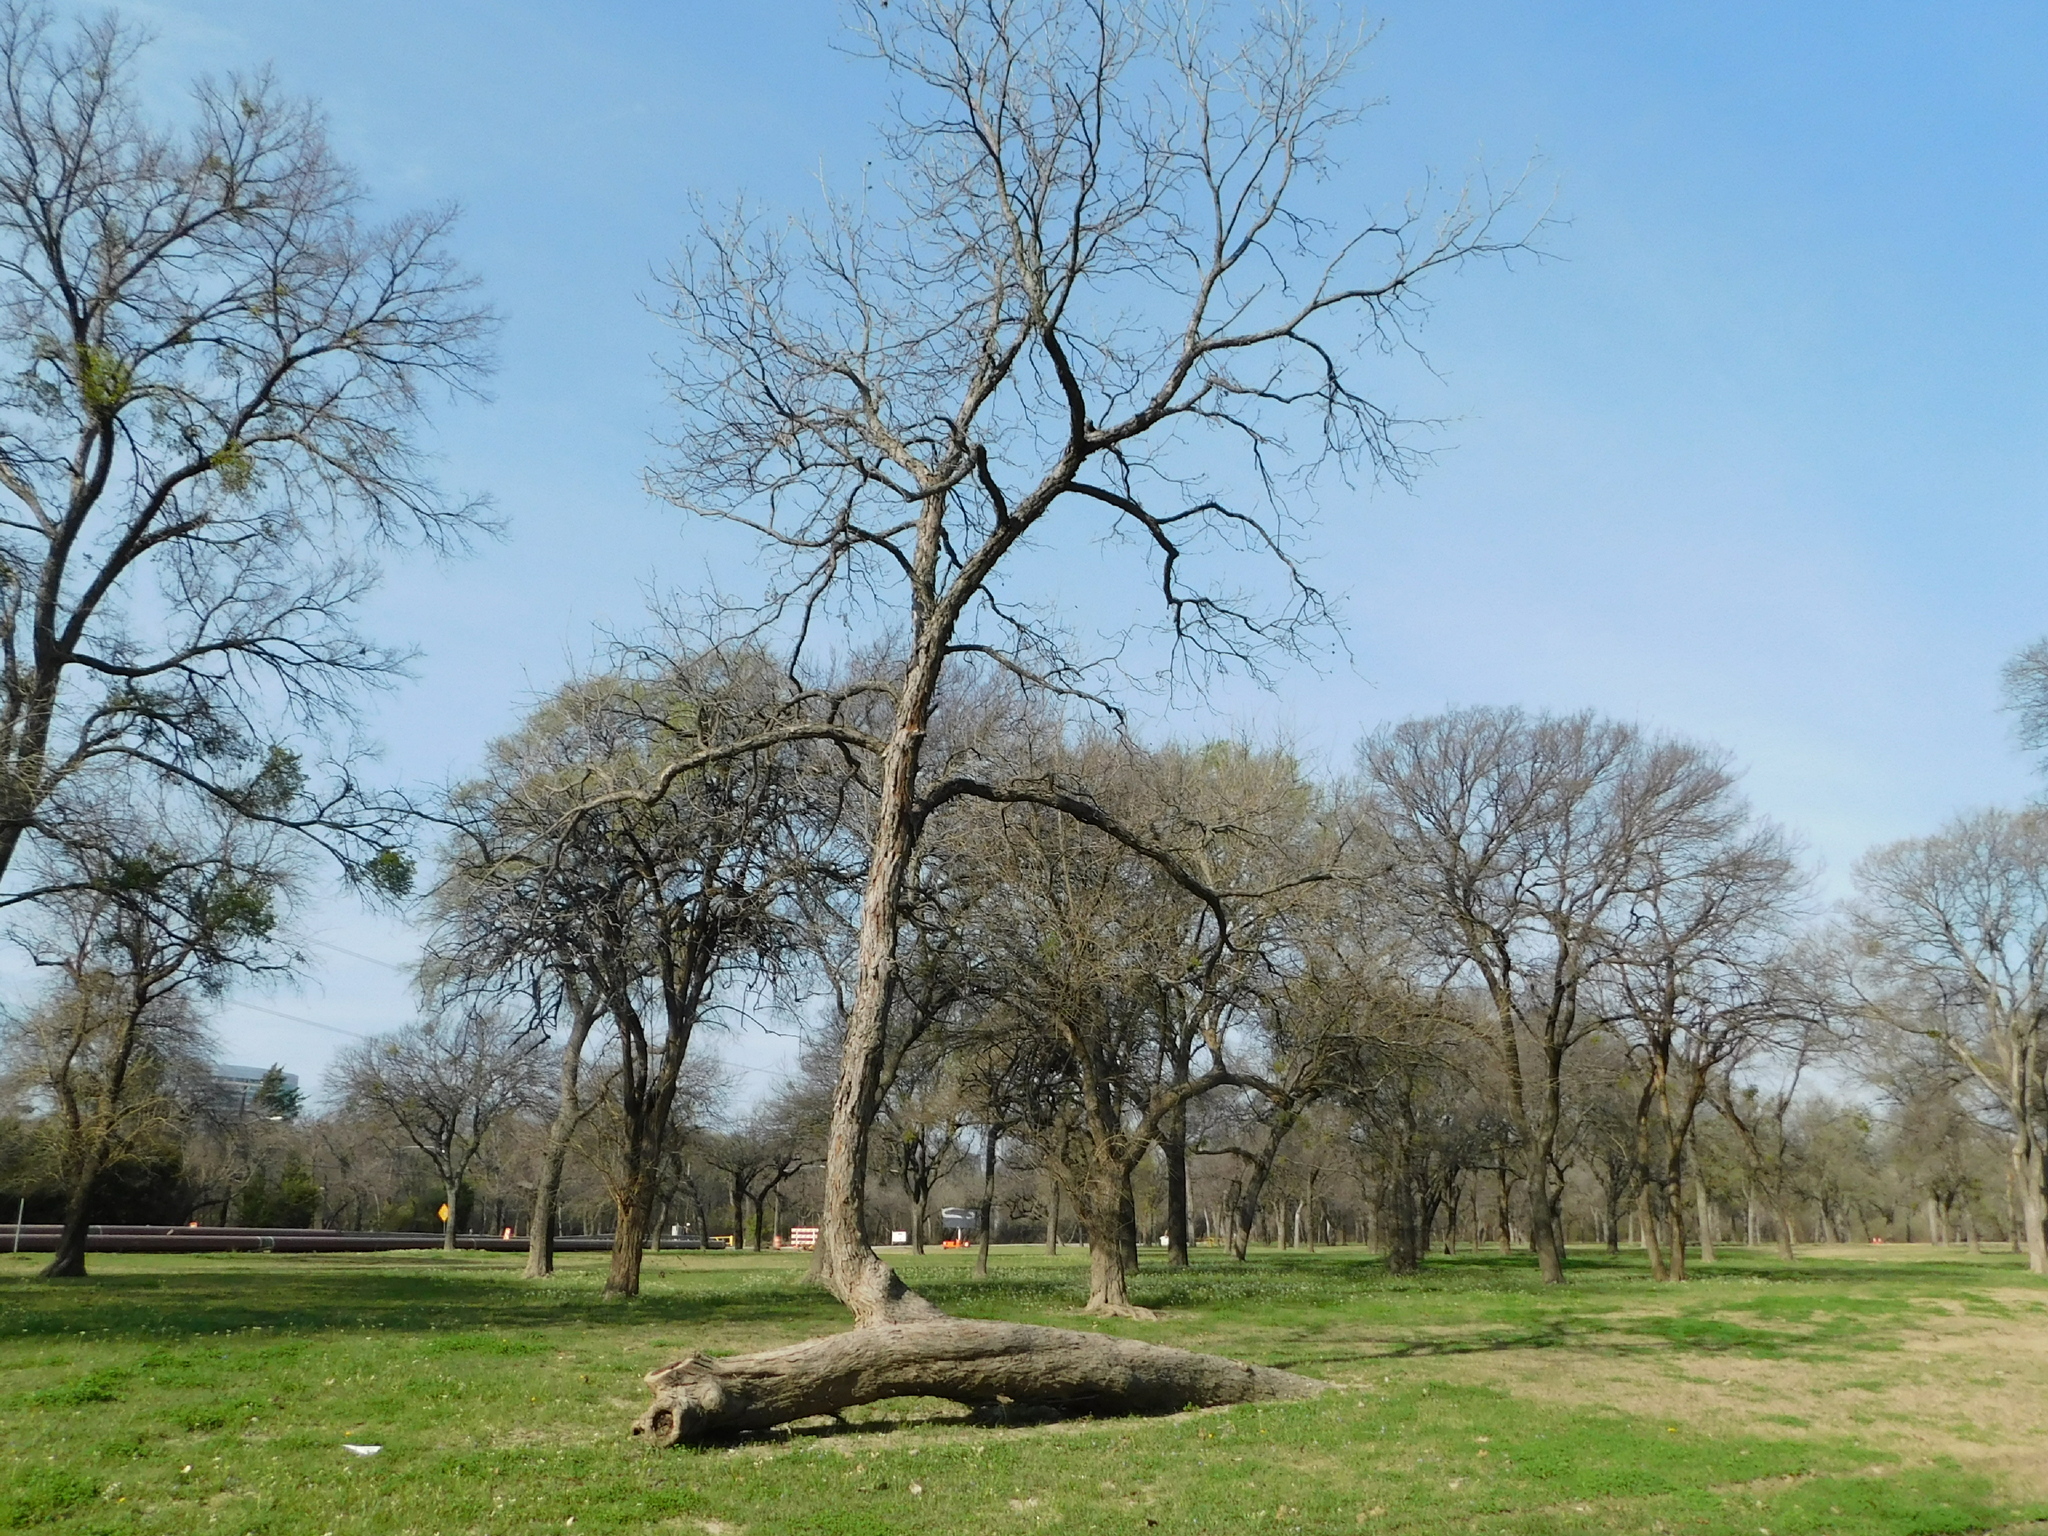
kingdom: Plantae
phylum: Tracheophyta
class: Magnoliopsida
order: Fagales
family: Juglandaceae
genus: Carya
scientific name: Carya illinoinensis
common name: Pecan
